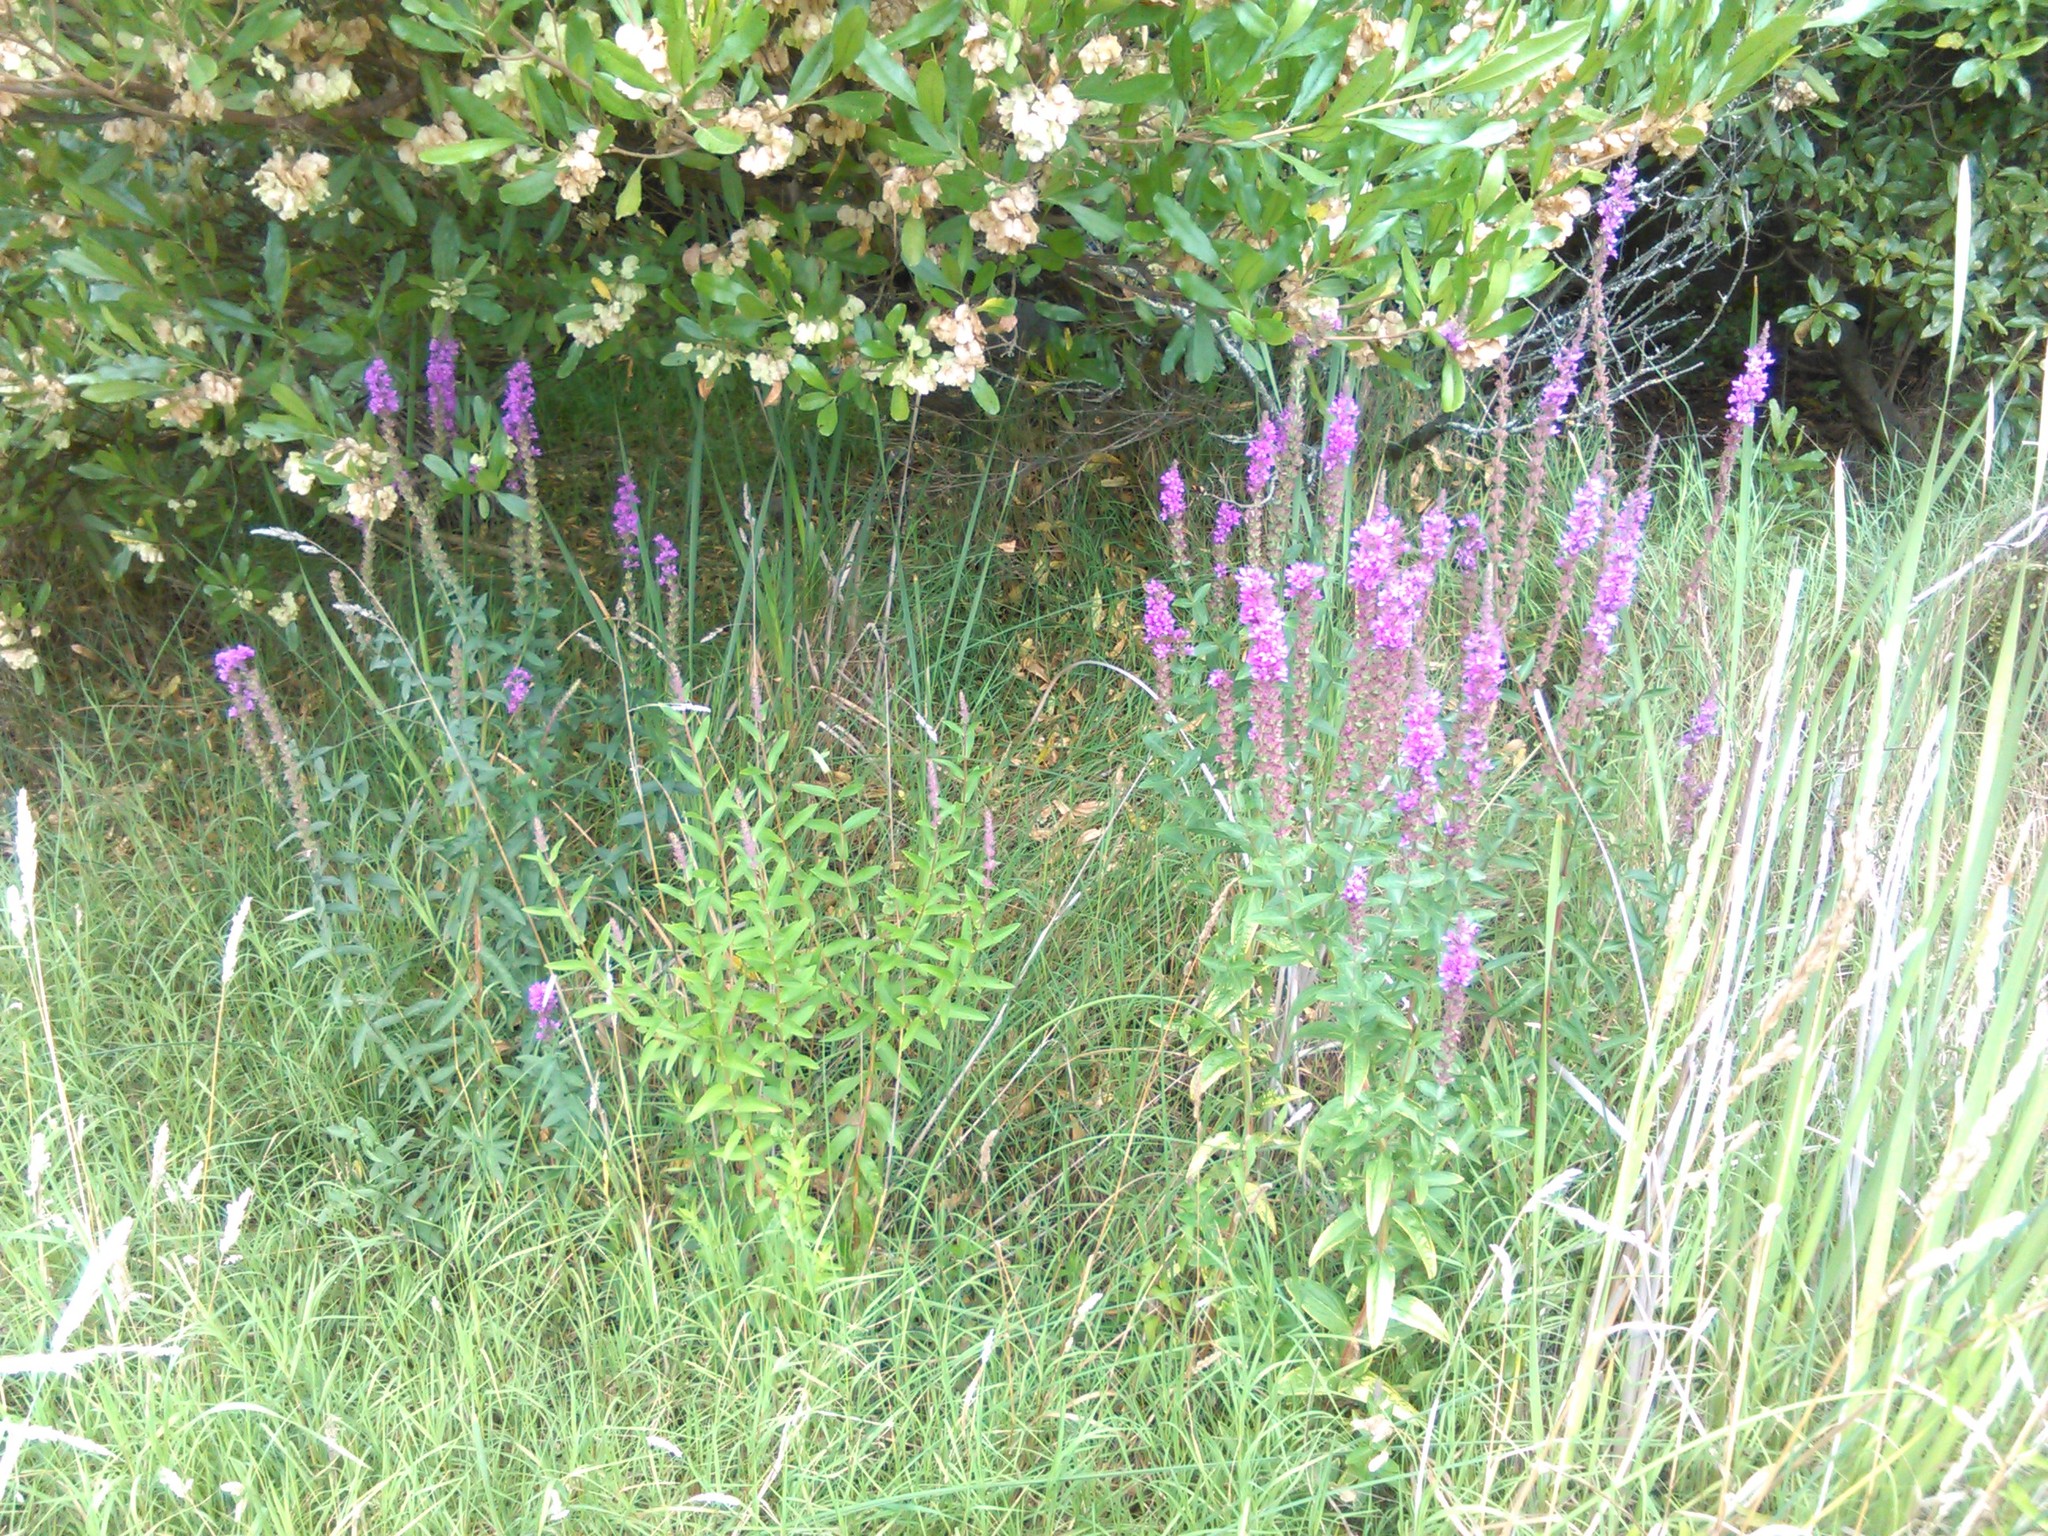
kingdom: Plantae
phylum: Tracheophyta
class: Magnoliopsida
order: Myrtales
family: Lythraceae
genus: Lythrum
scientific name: Lythrum salicaria
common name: Purple loosestrife
